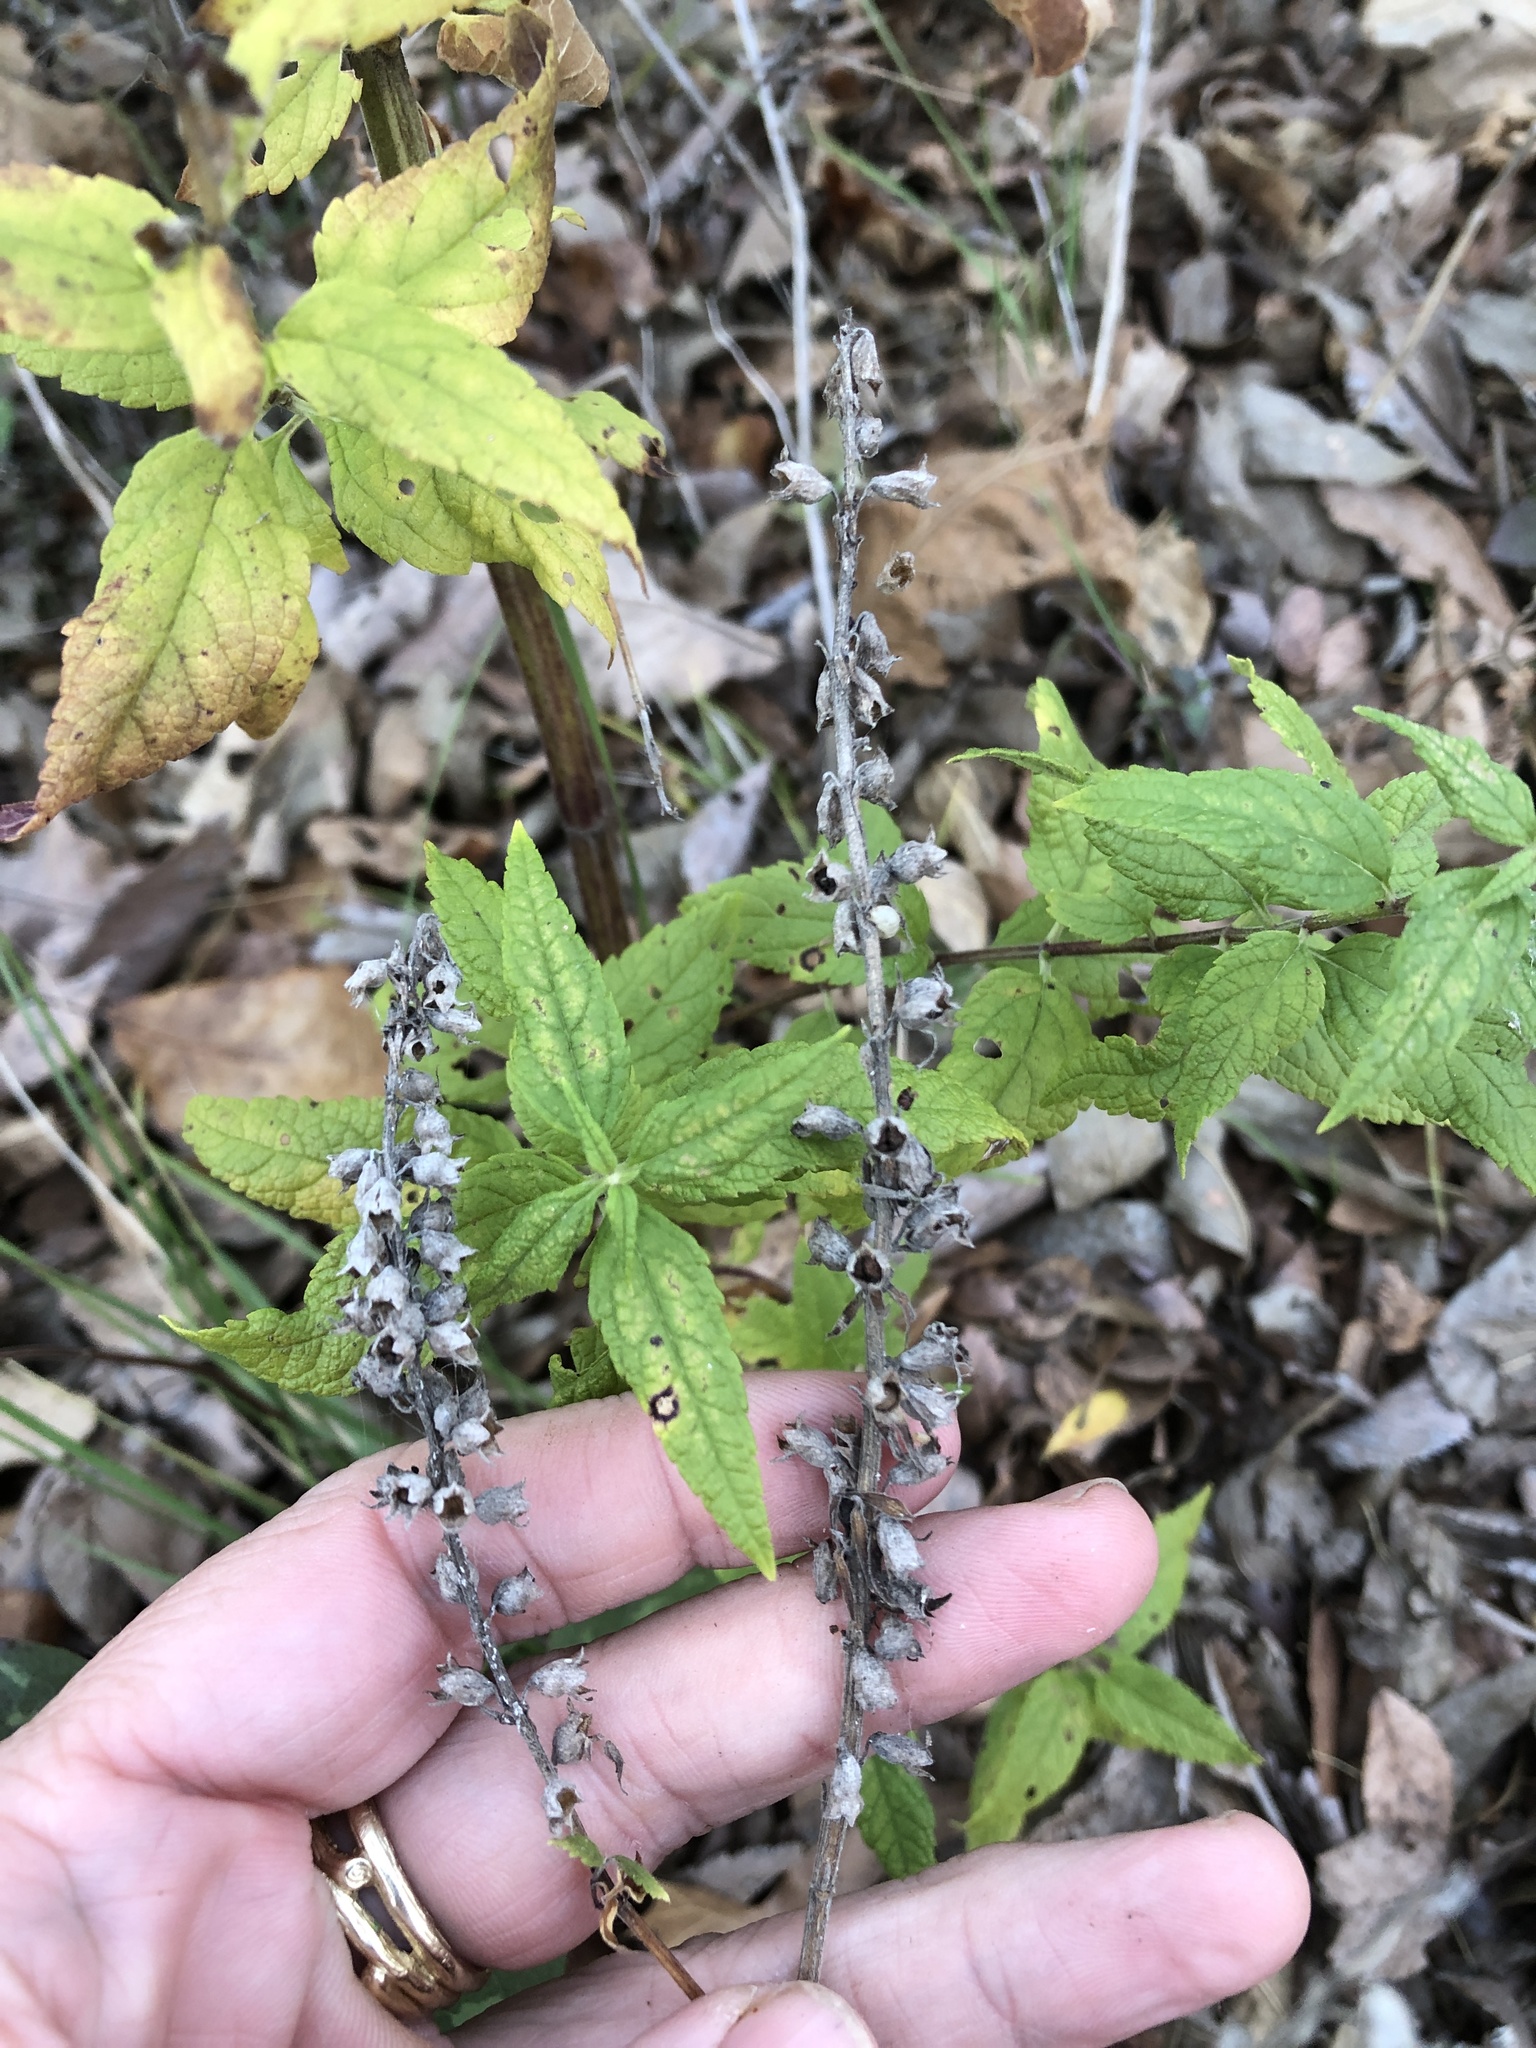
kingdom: Plantae
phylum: Tracheophyta
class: Magnoliopsida
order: Lamiales
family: Lamiaceae
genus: Teucrium
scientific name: Teucrium canadense
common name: American germander
